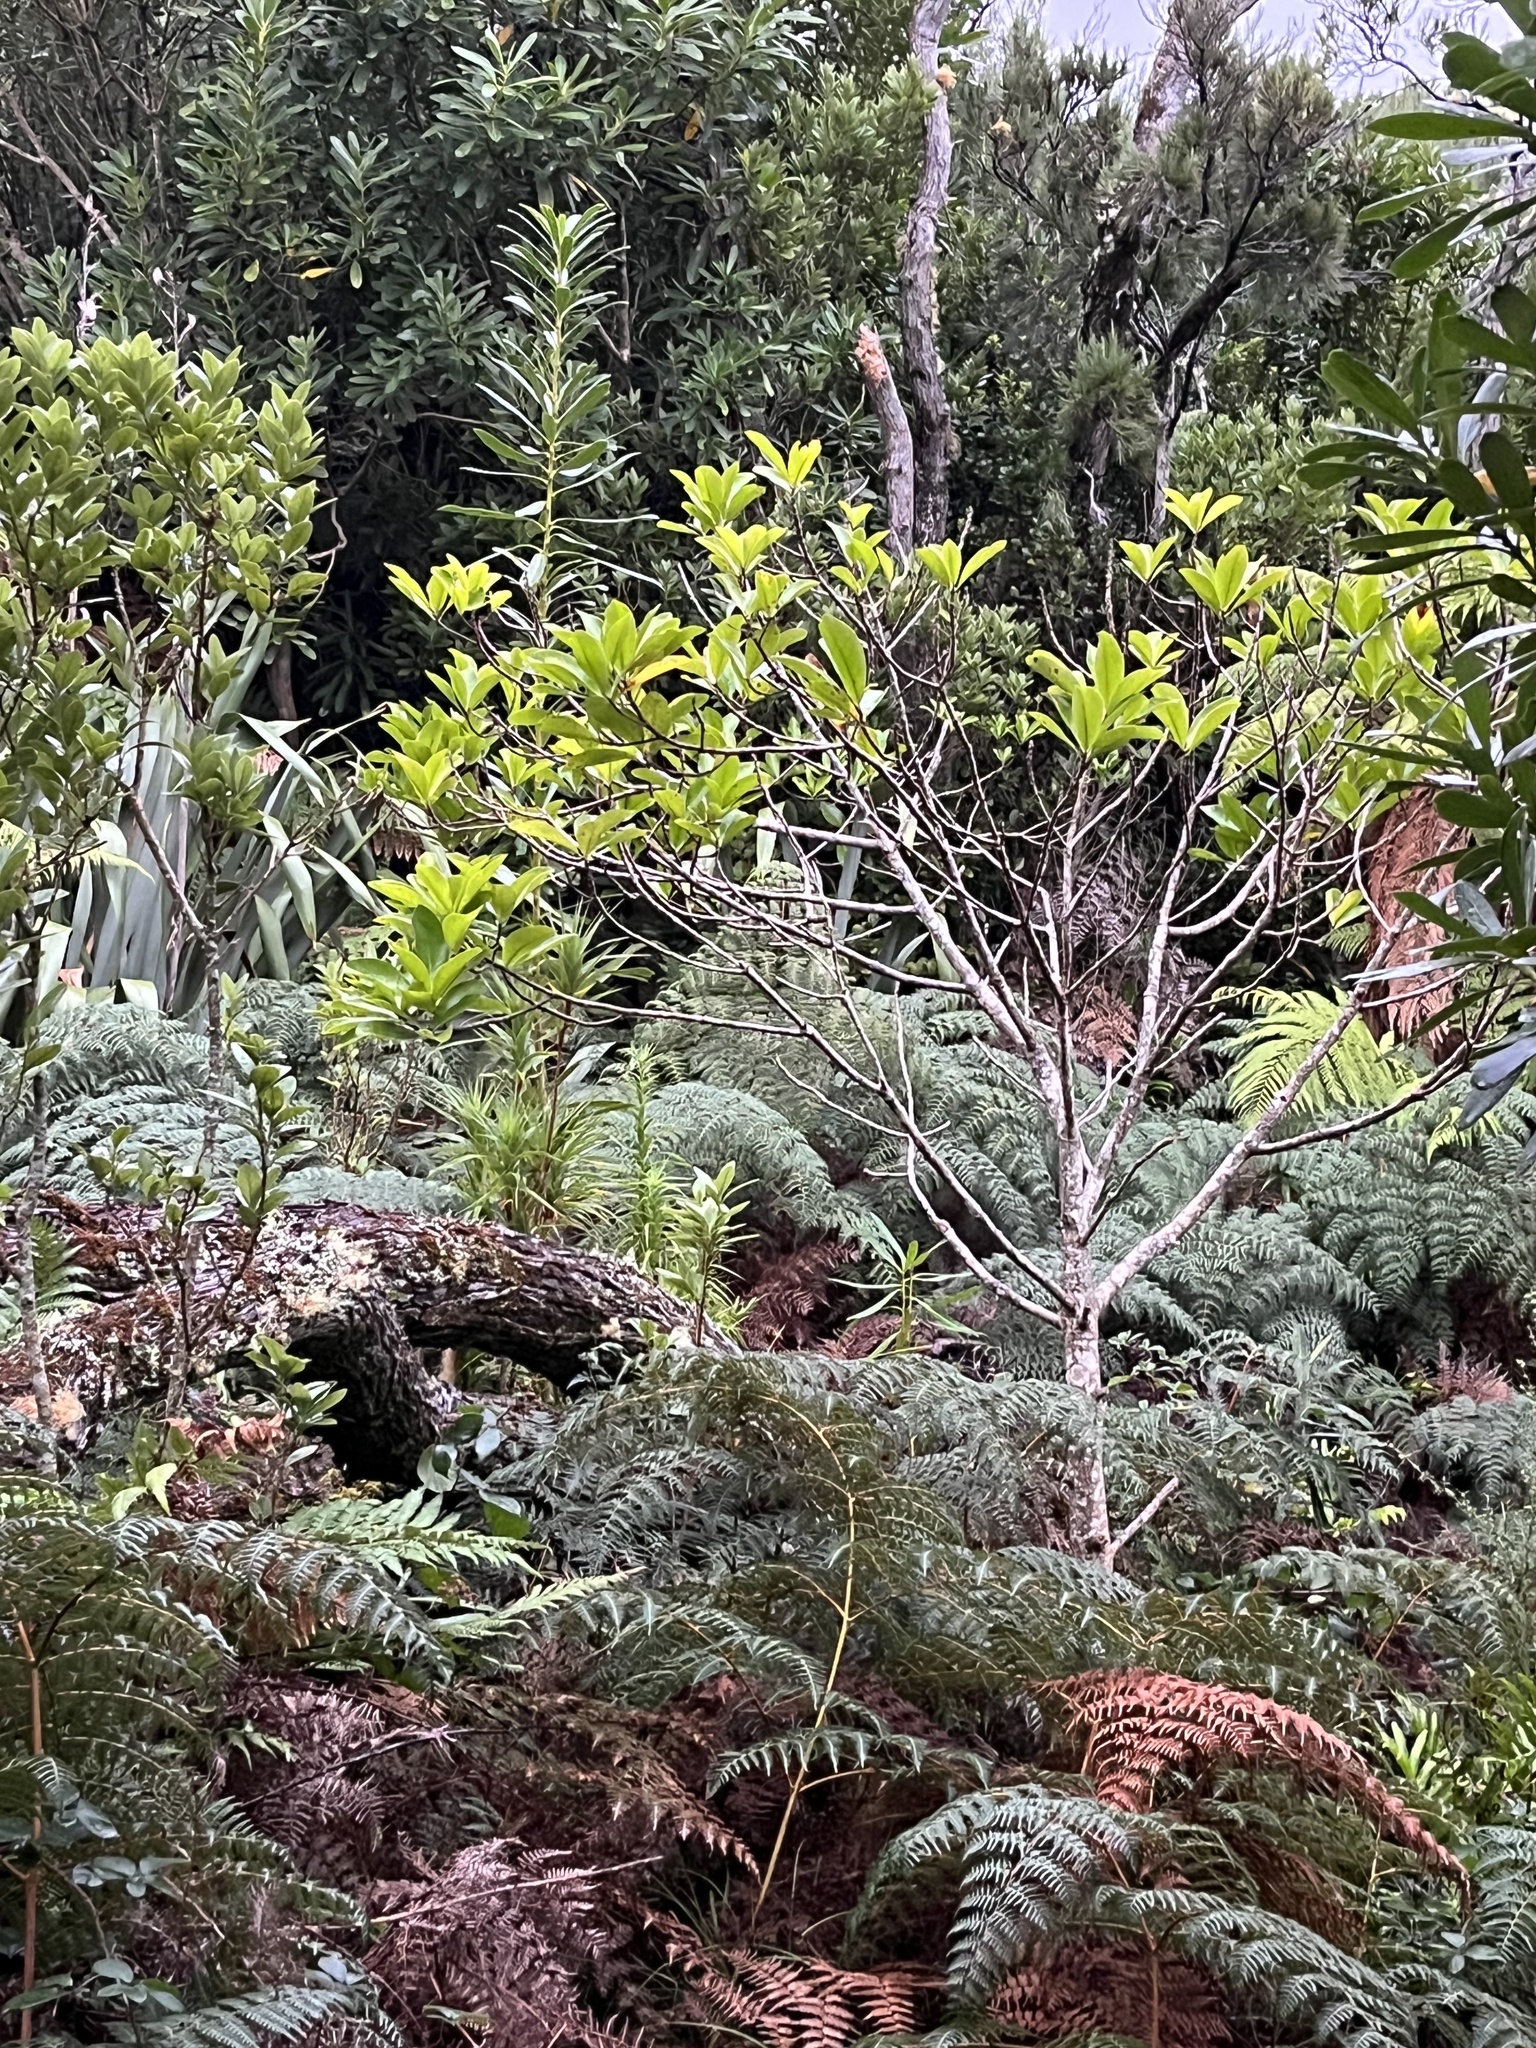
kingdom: Plantae
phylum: Tracheophyta
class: Magnoliopsida
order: Cucurbitales
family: Corynocarpaceae
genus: Corynocarpus
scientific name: Corynocarpus laevigatus
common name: New zealand laurel
